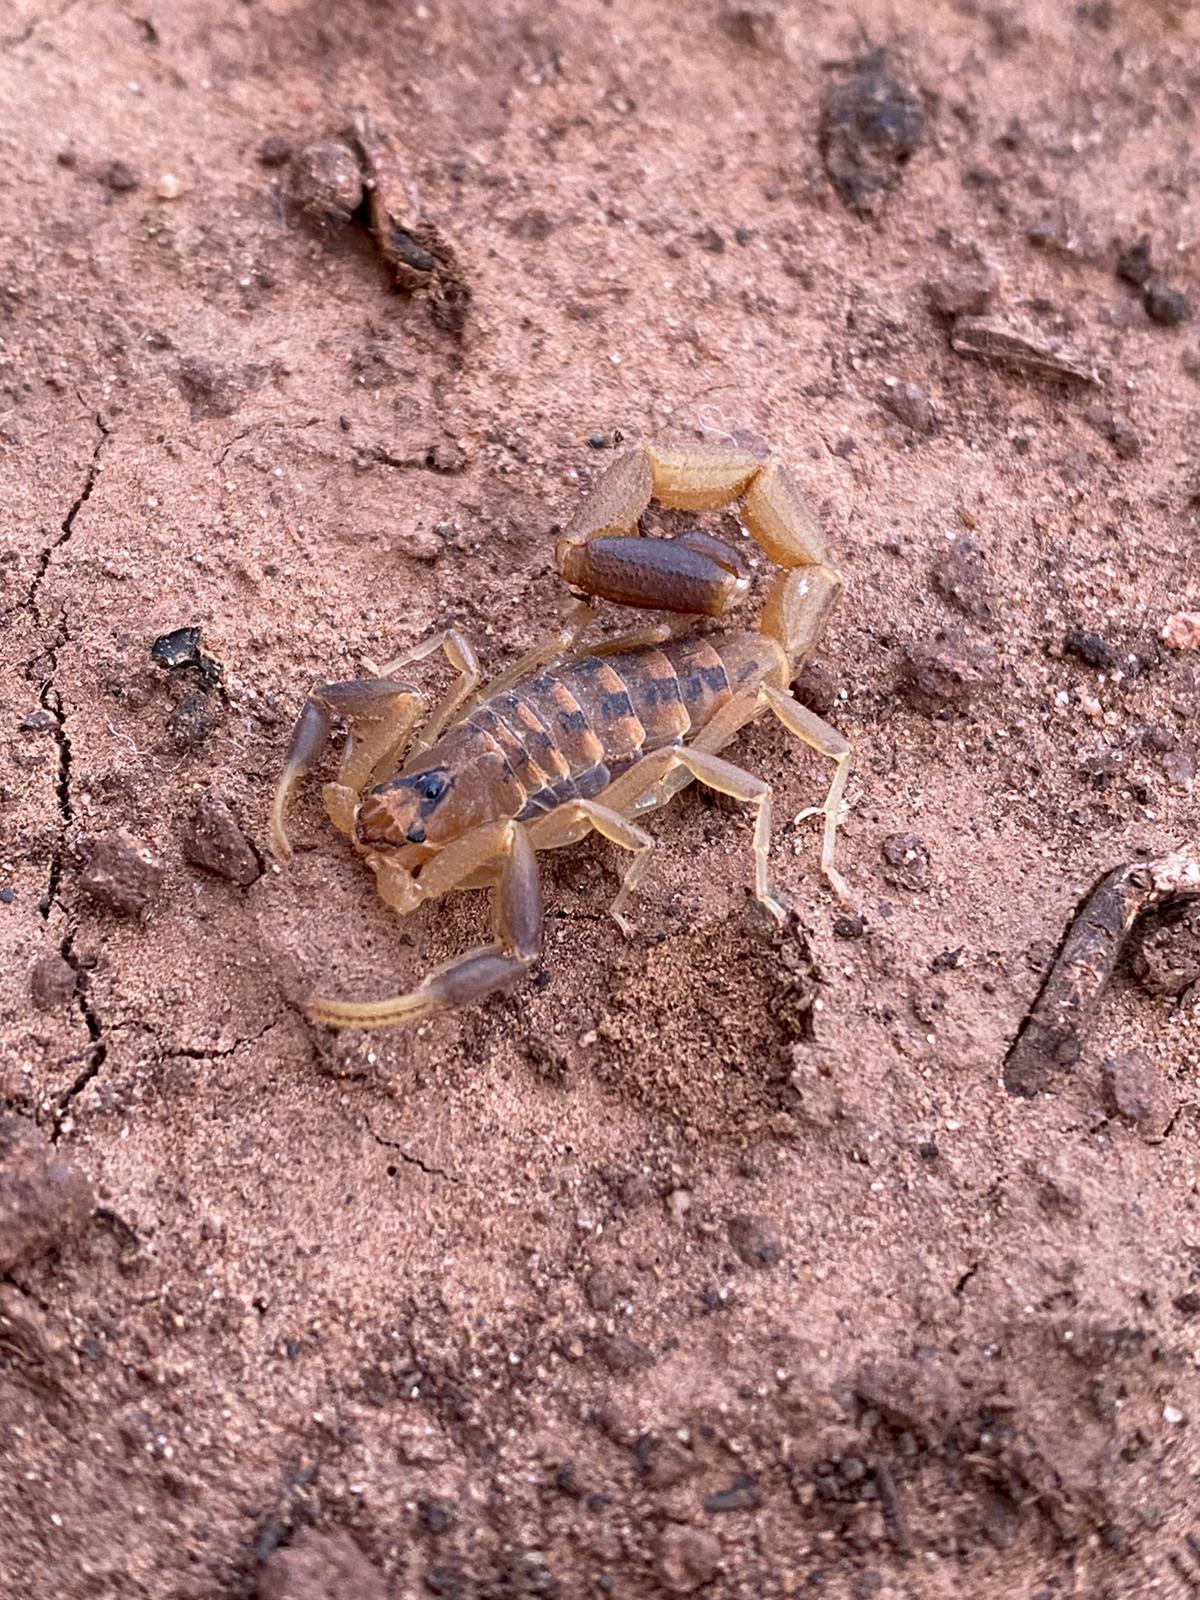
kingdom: Animalia
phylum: Arthropoda
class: Arachnida
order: Scorpiones
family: Buthidae
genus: Uroplectes
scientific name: Uroplectes triangulifer
